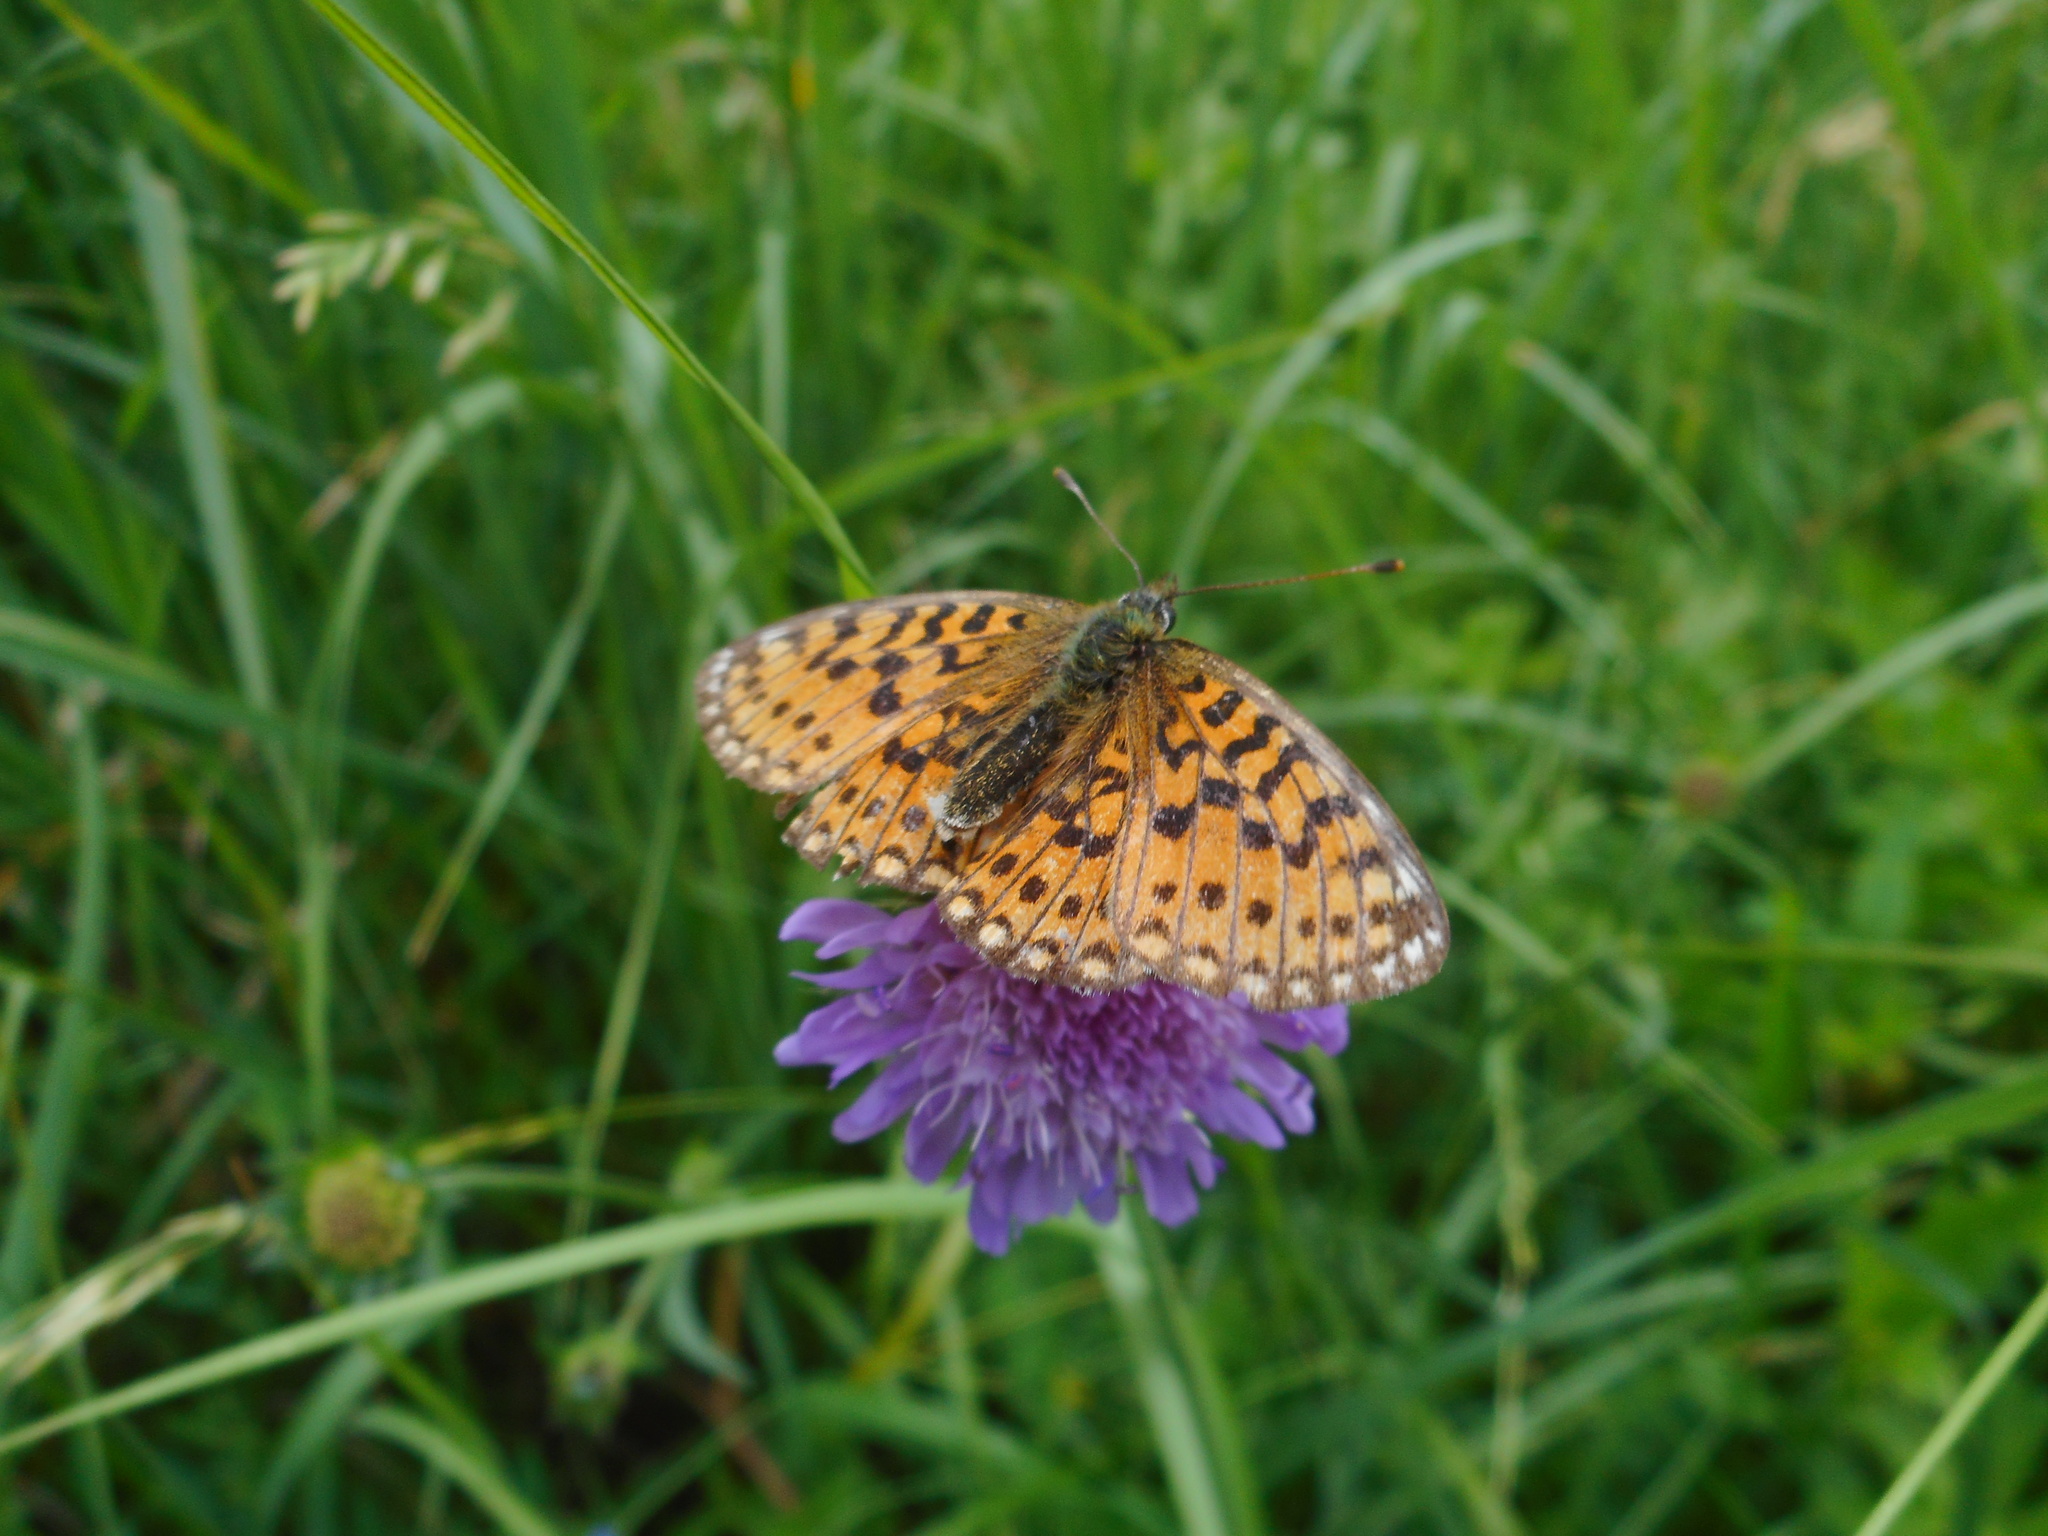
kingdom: Animalia
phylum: Arthropoda
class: Insecta
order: Lepidoptera
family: Nymphalidae
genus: Boloria
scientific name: Boloria selene
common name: Small pearl-bordered fritillary
